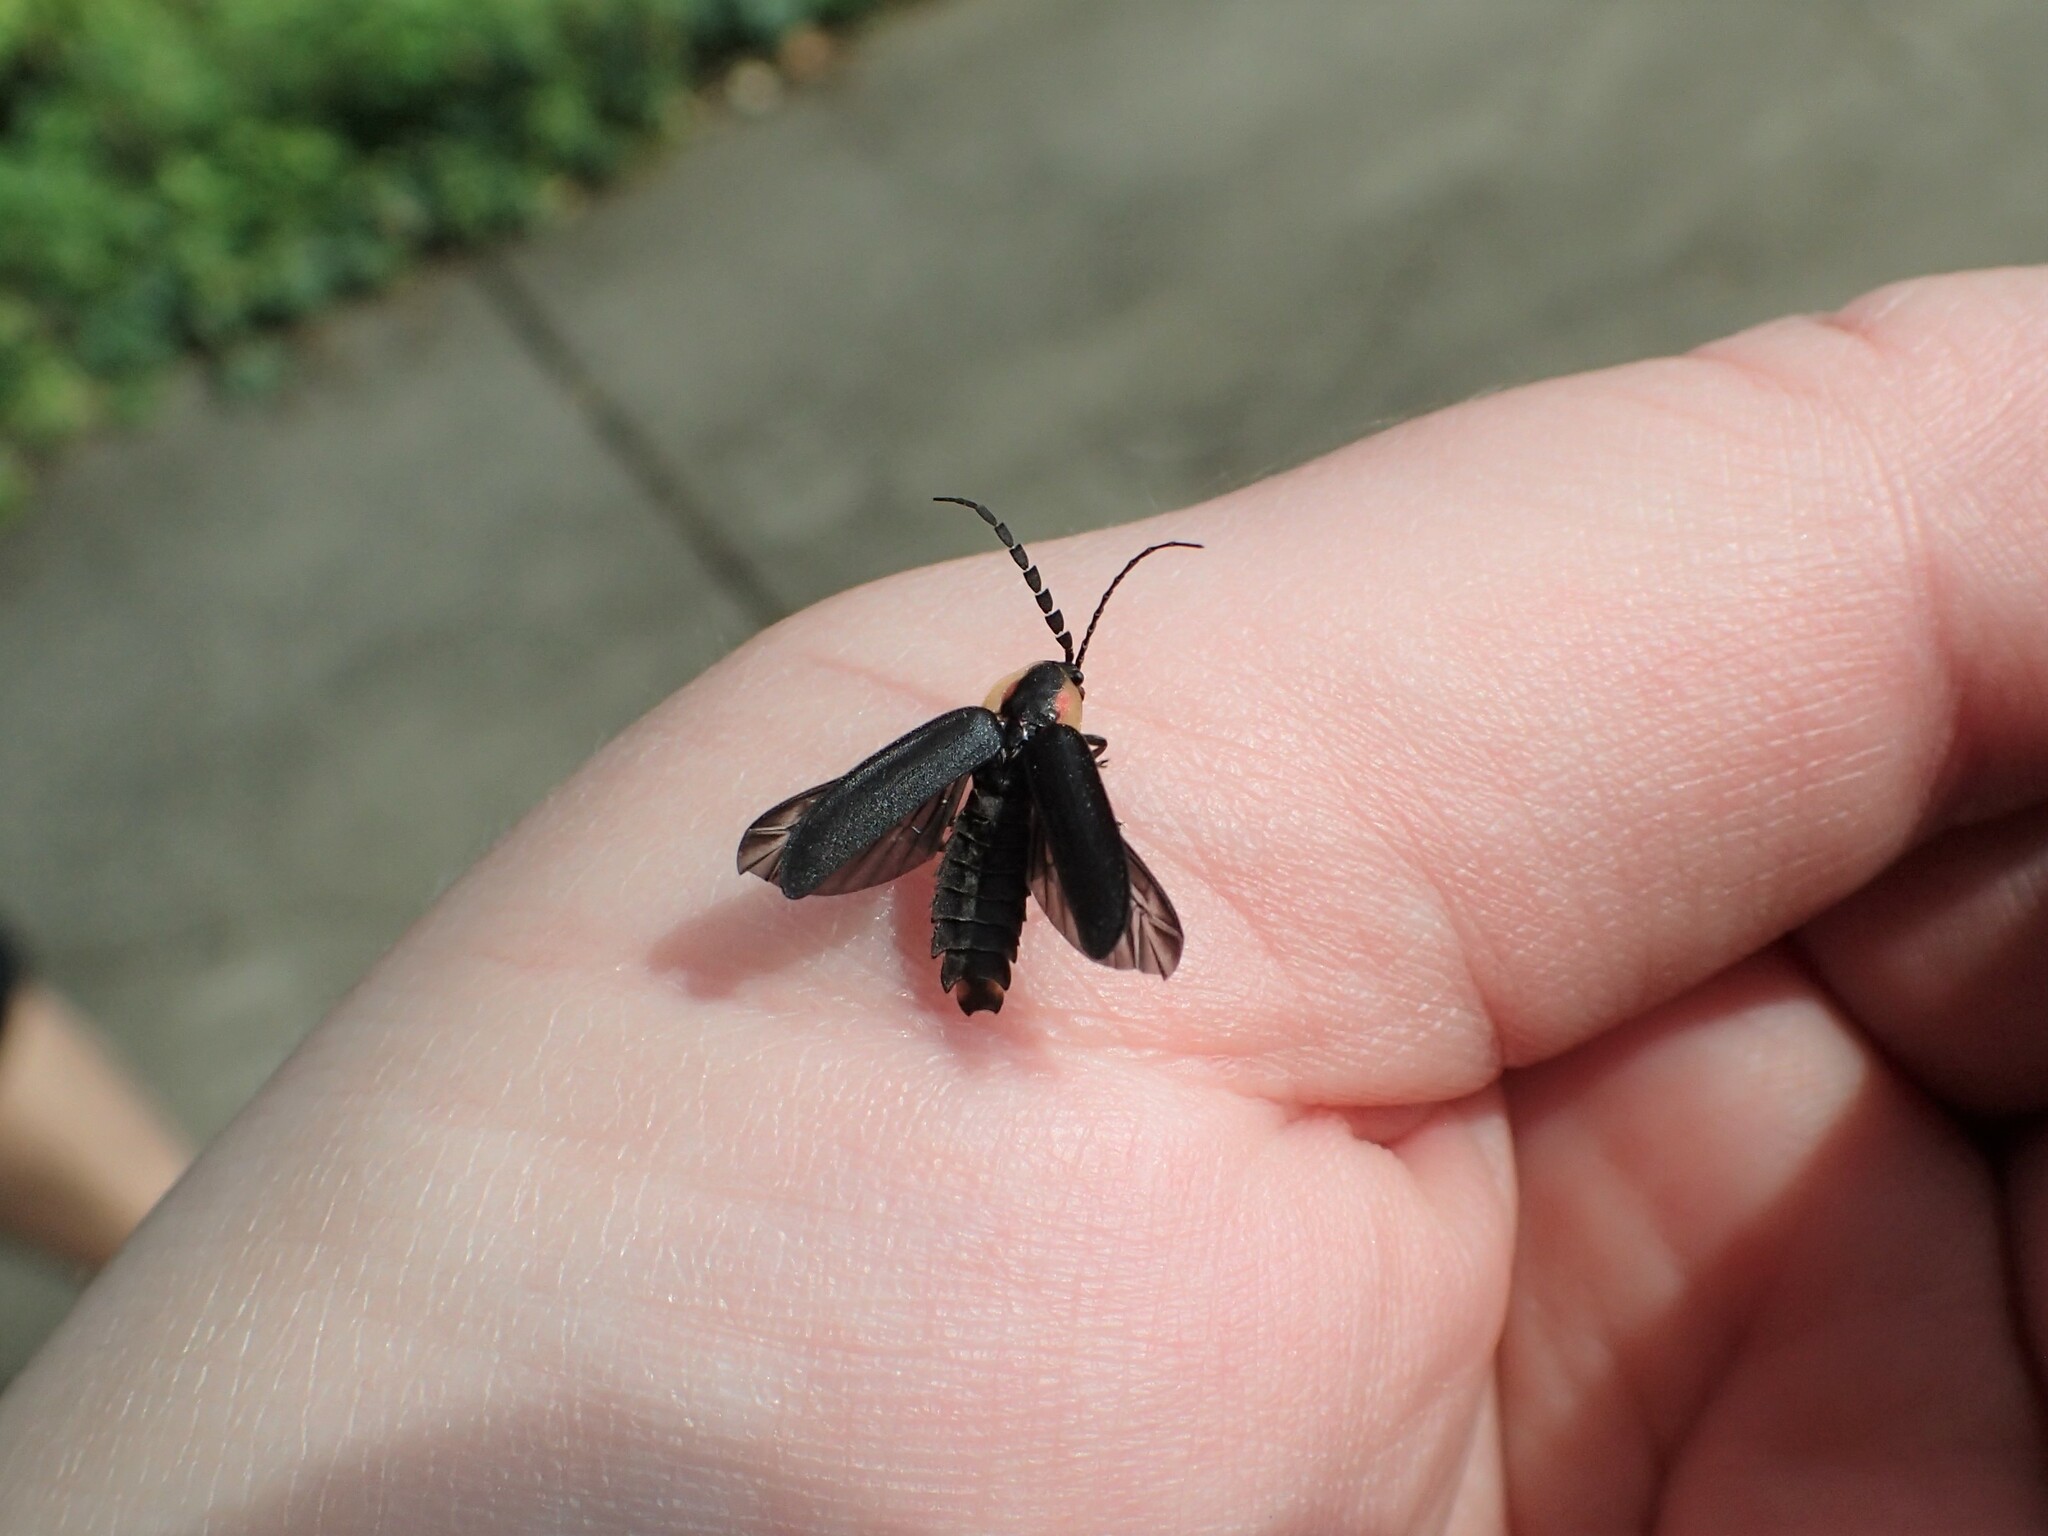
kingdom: Animalia
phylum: Arthropoda
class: Insecta
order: Coleoptera
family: Lampyridae
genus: Lucidota
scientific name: Lucidota atra
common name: Black firefly
